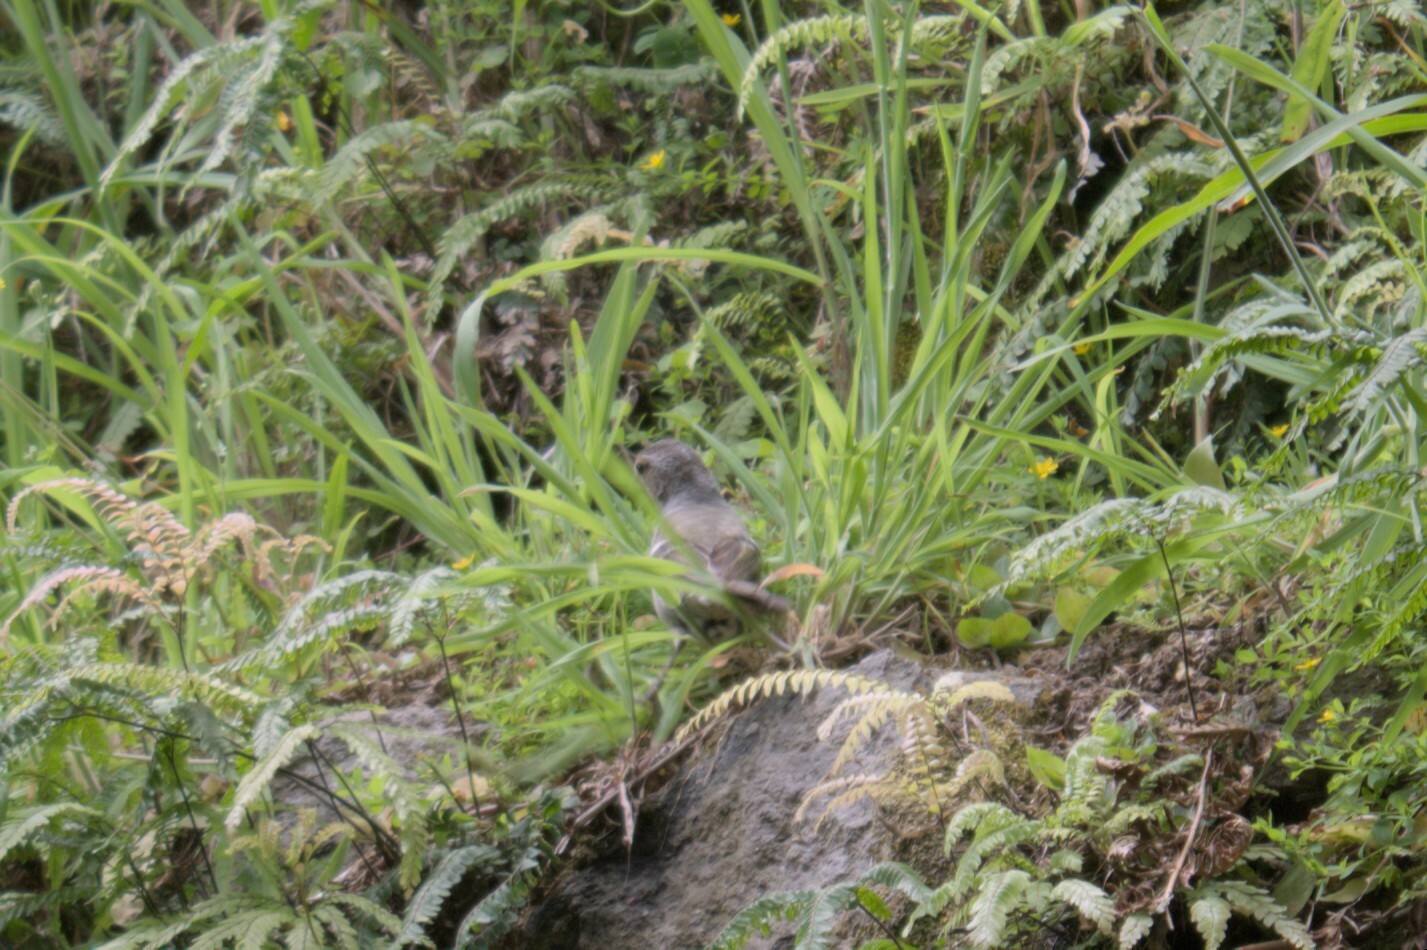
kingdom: Animalia
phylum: Chordata
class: Aves
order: Passeriformes
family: Fringillidae
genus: Fringilla
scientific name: Fringilla moreletti
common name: Azores chaffinch
